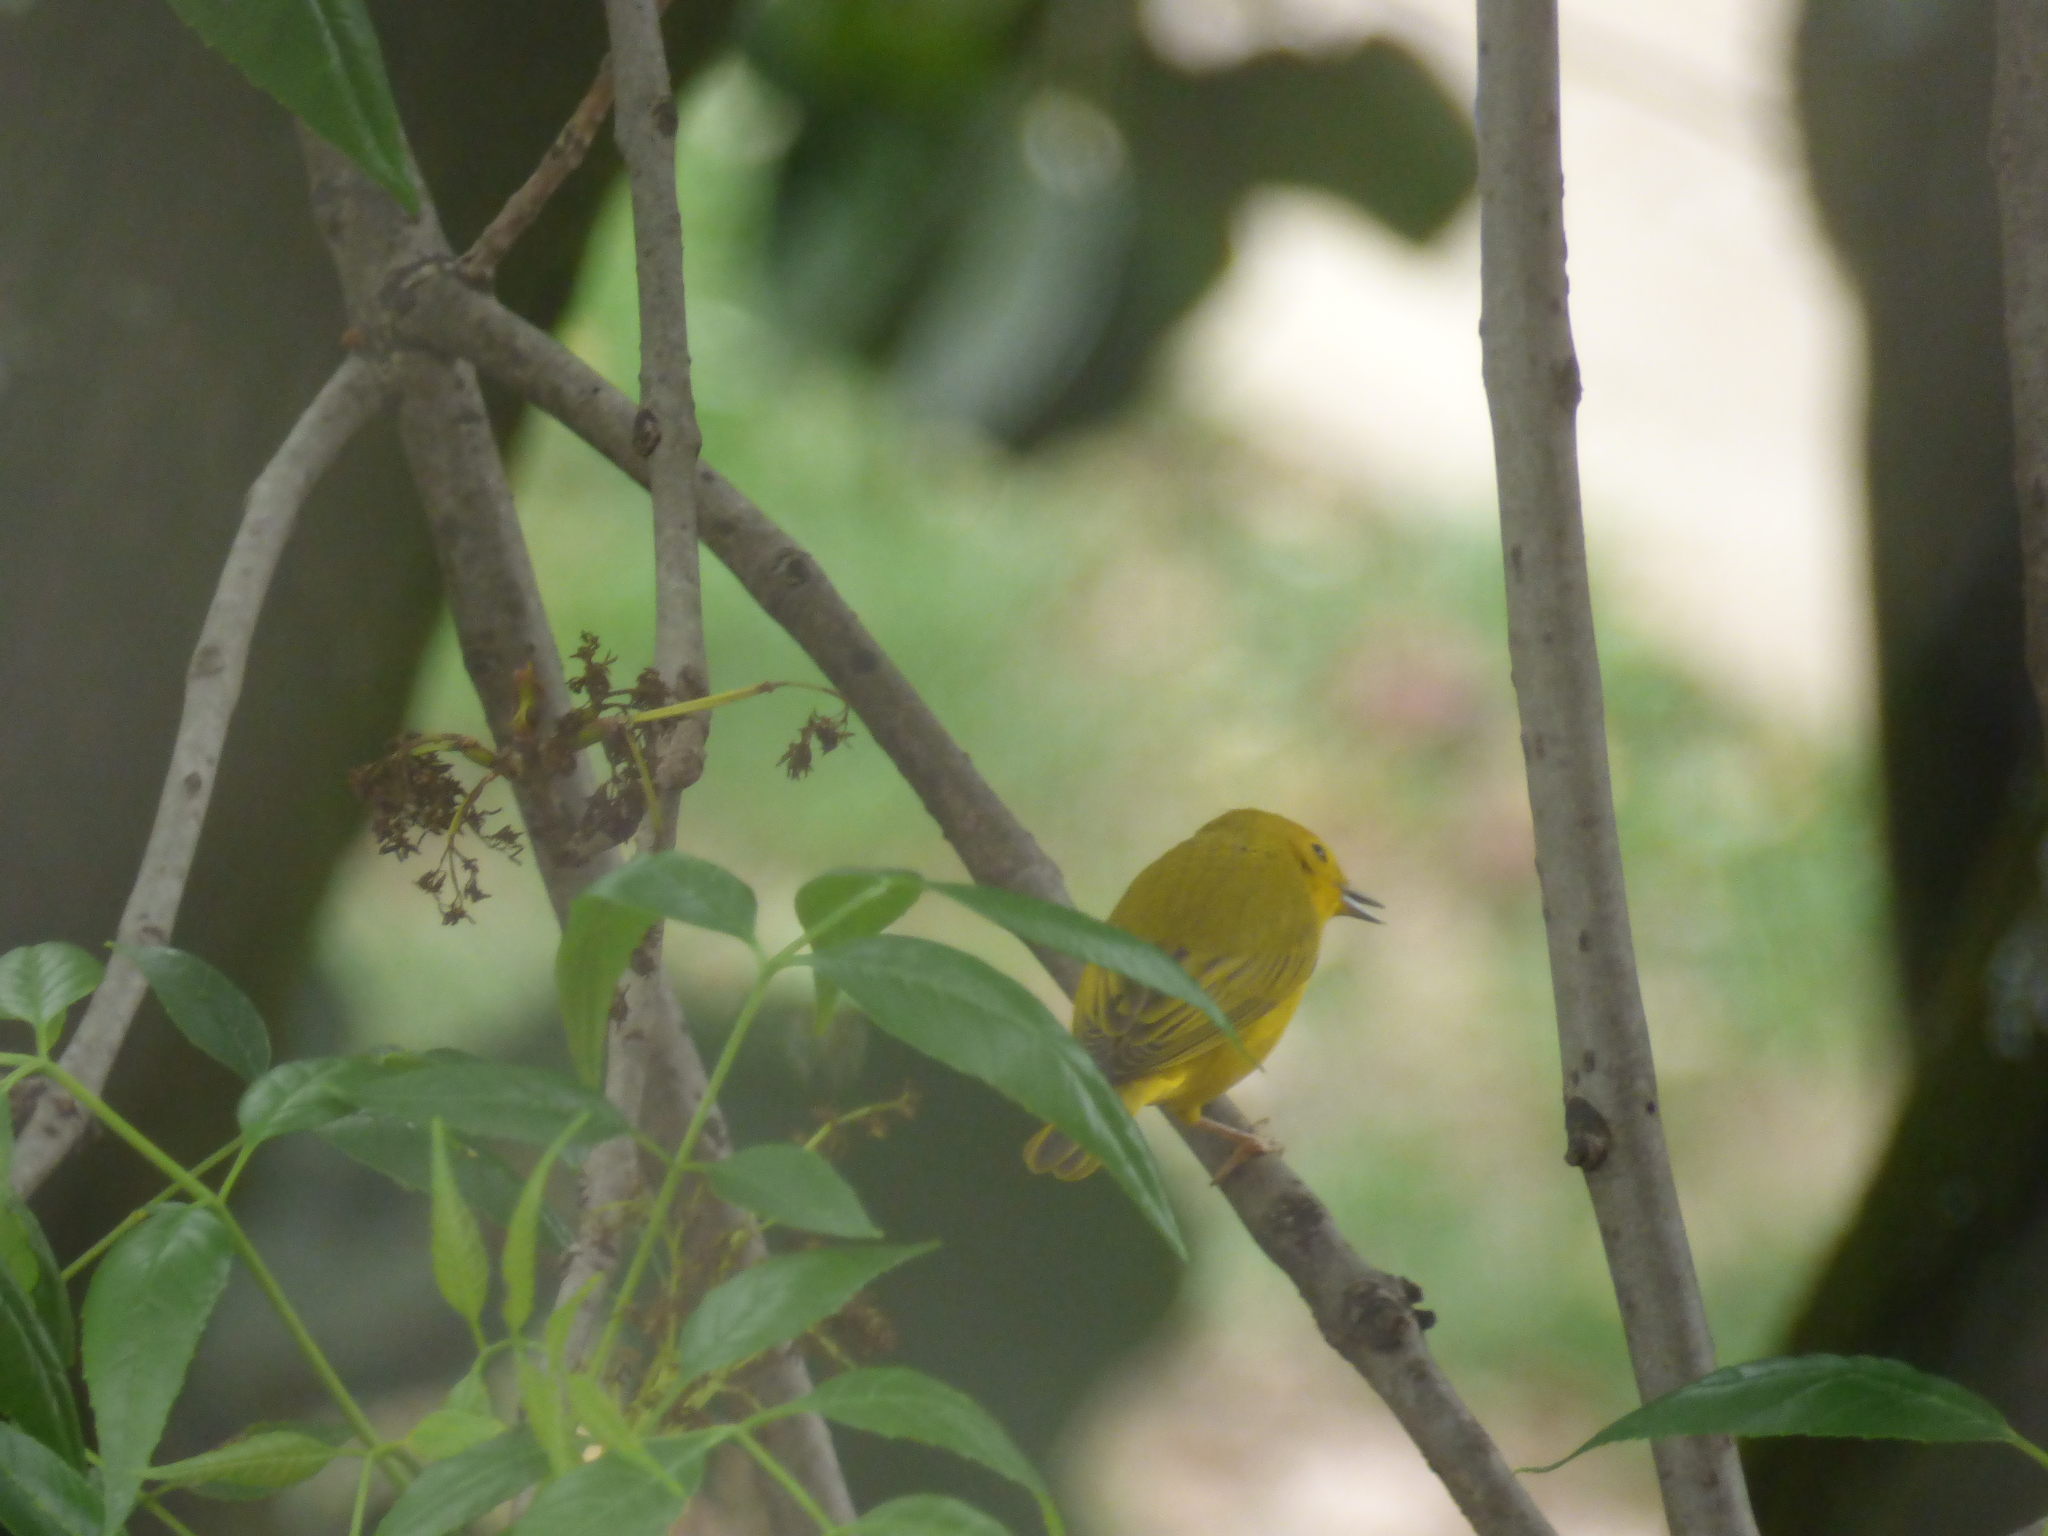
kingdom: Animalia
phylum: Chordata
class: Aves
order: Passeriformes
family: Parulidae
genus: Setophaga
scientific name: Setophaga petechia
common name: Yellow warbler
